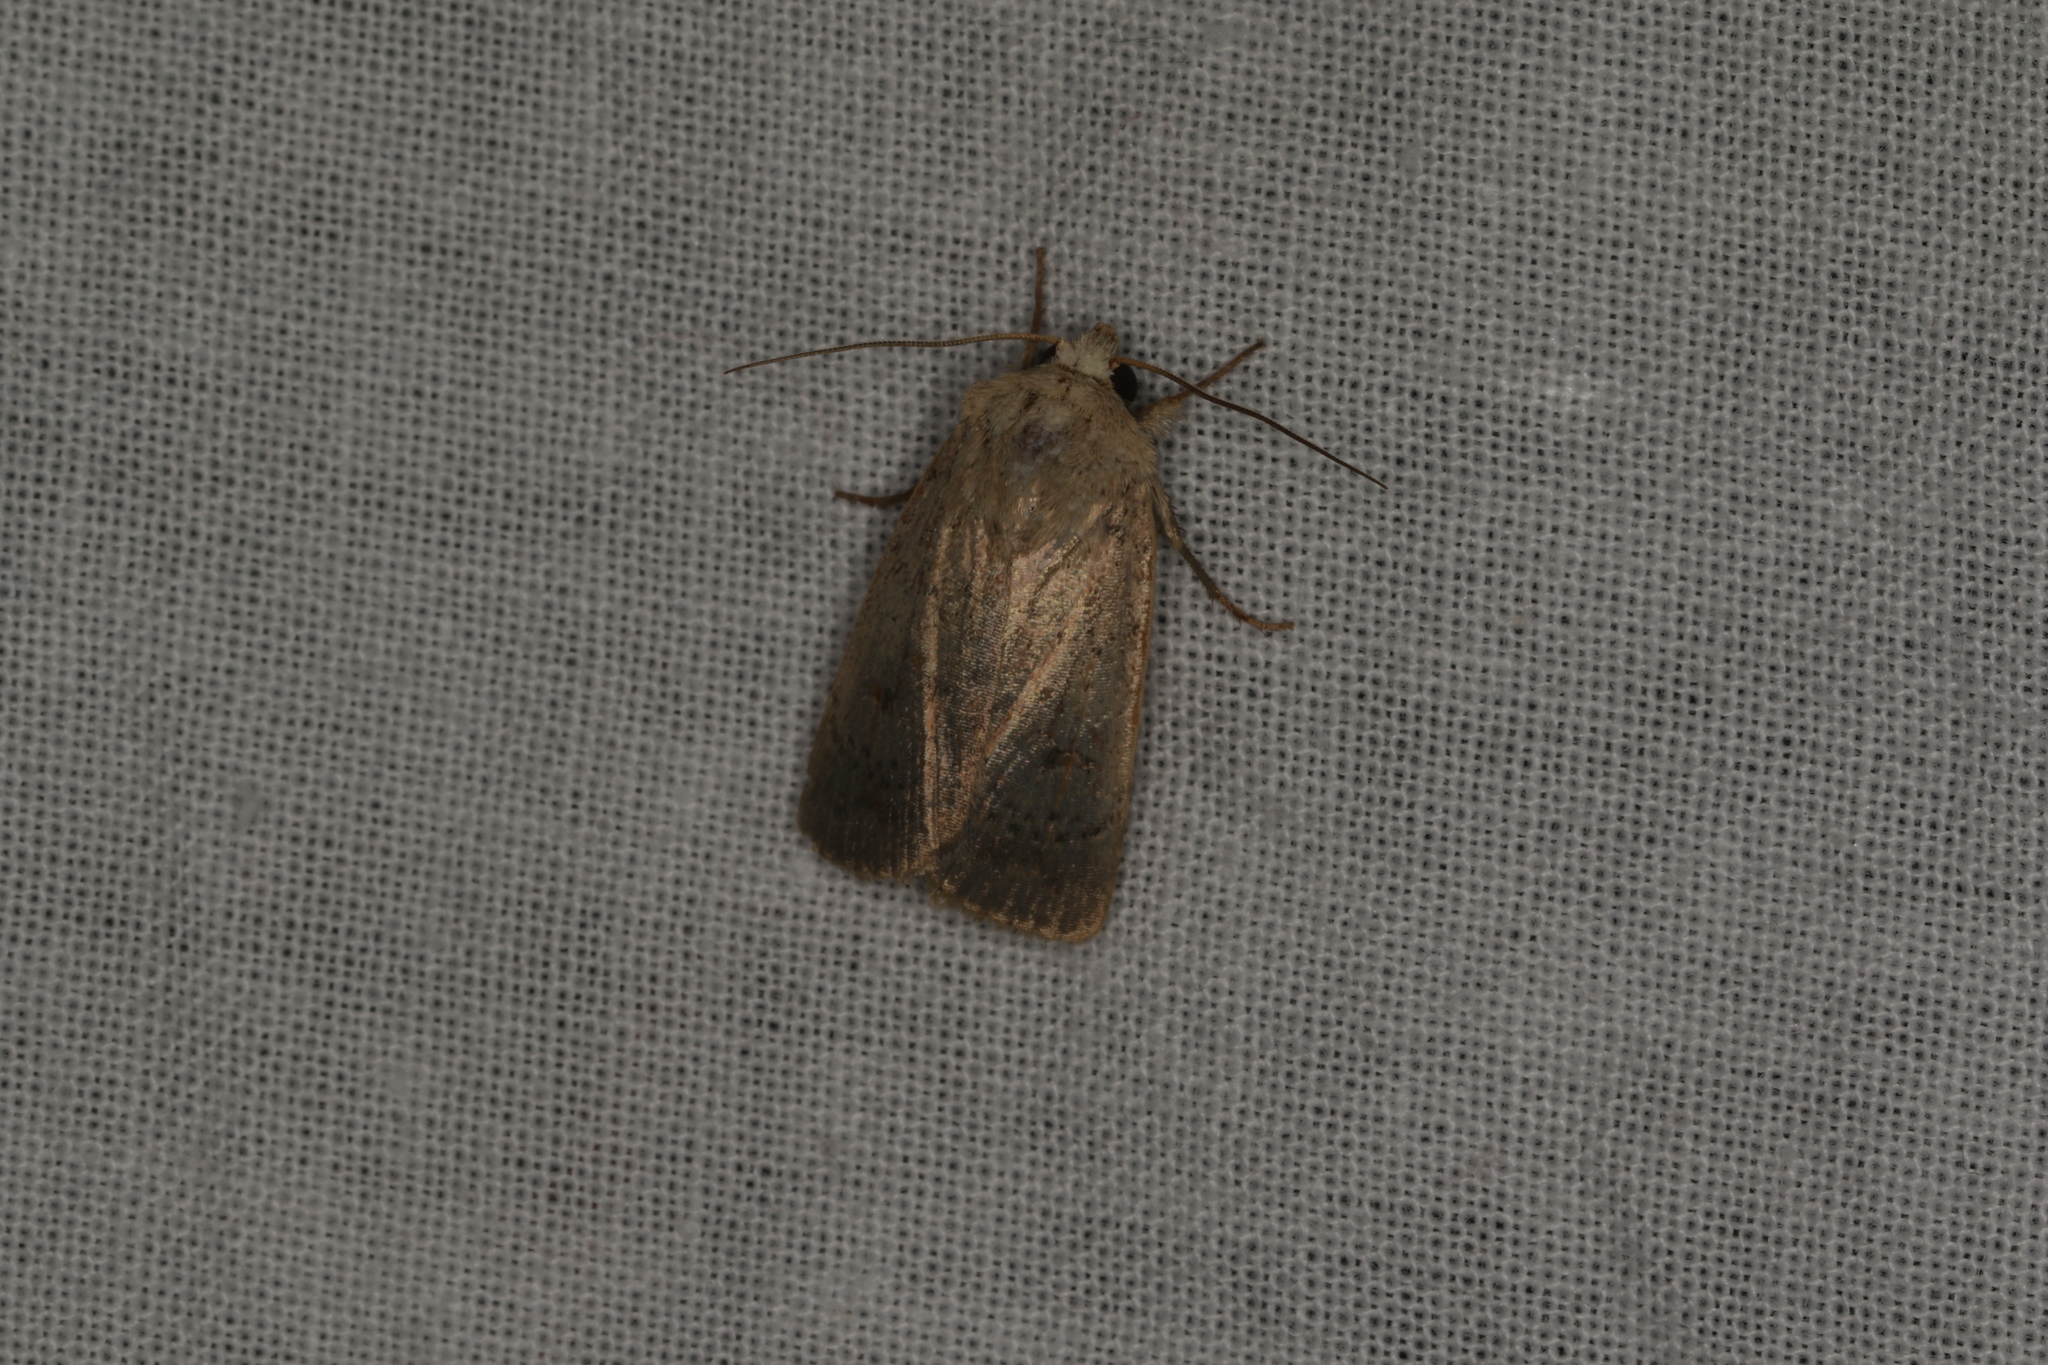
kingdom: Animalia
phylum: Arthropoda
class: Insecta
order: Lepidoptera
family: Noctuidae
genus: Proteuxoa
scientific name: Proteuxoa hypochalchis
